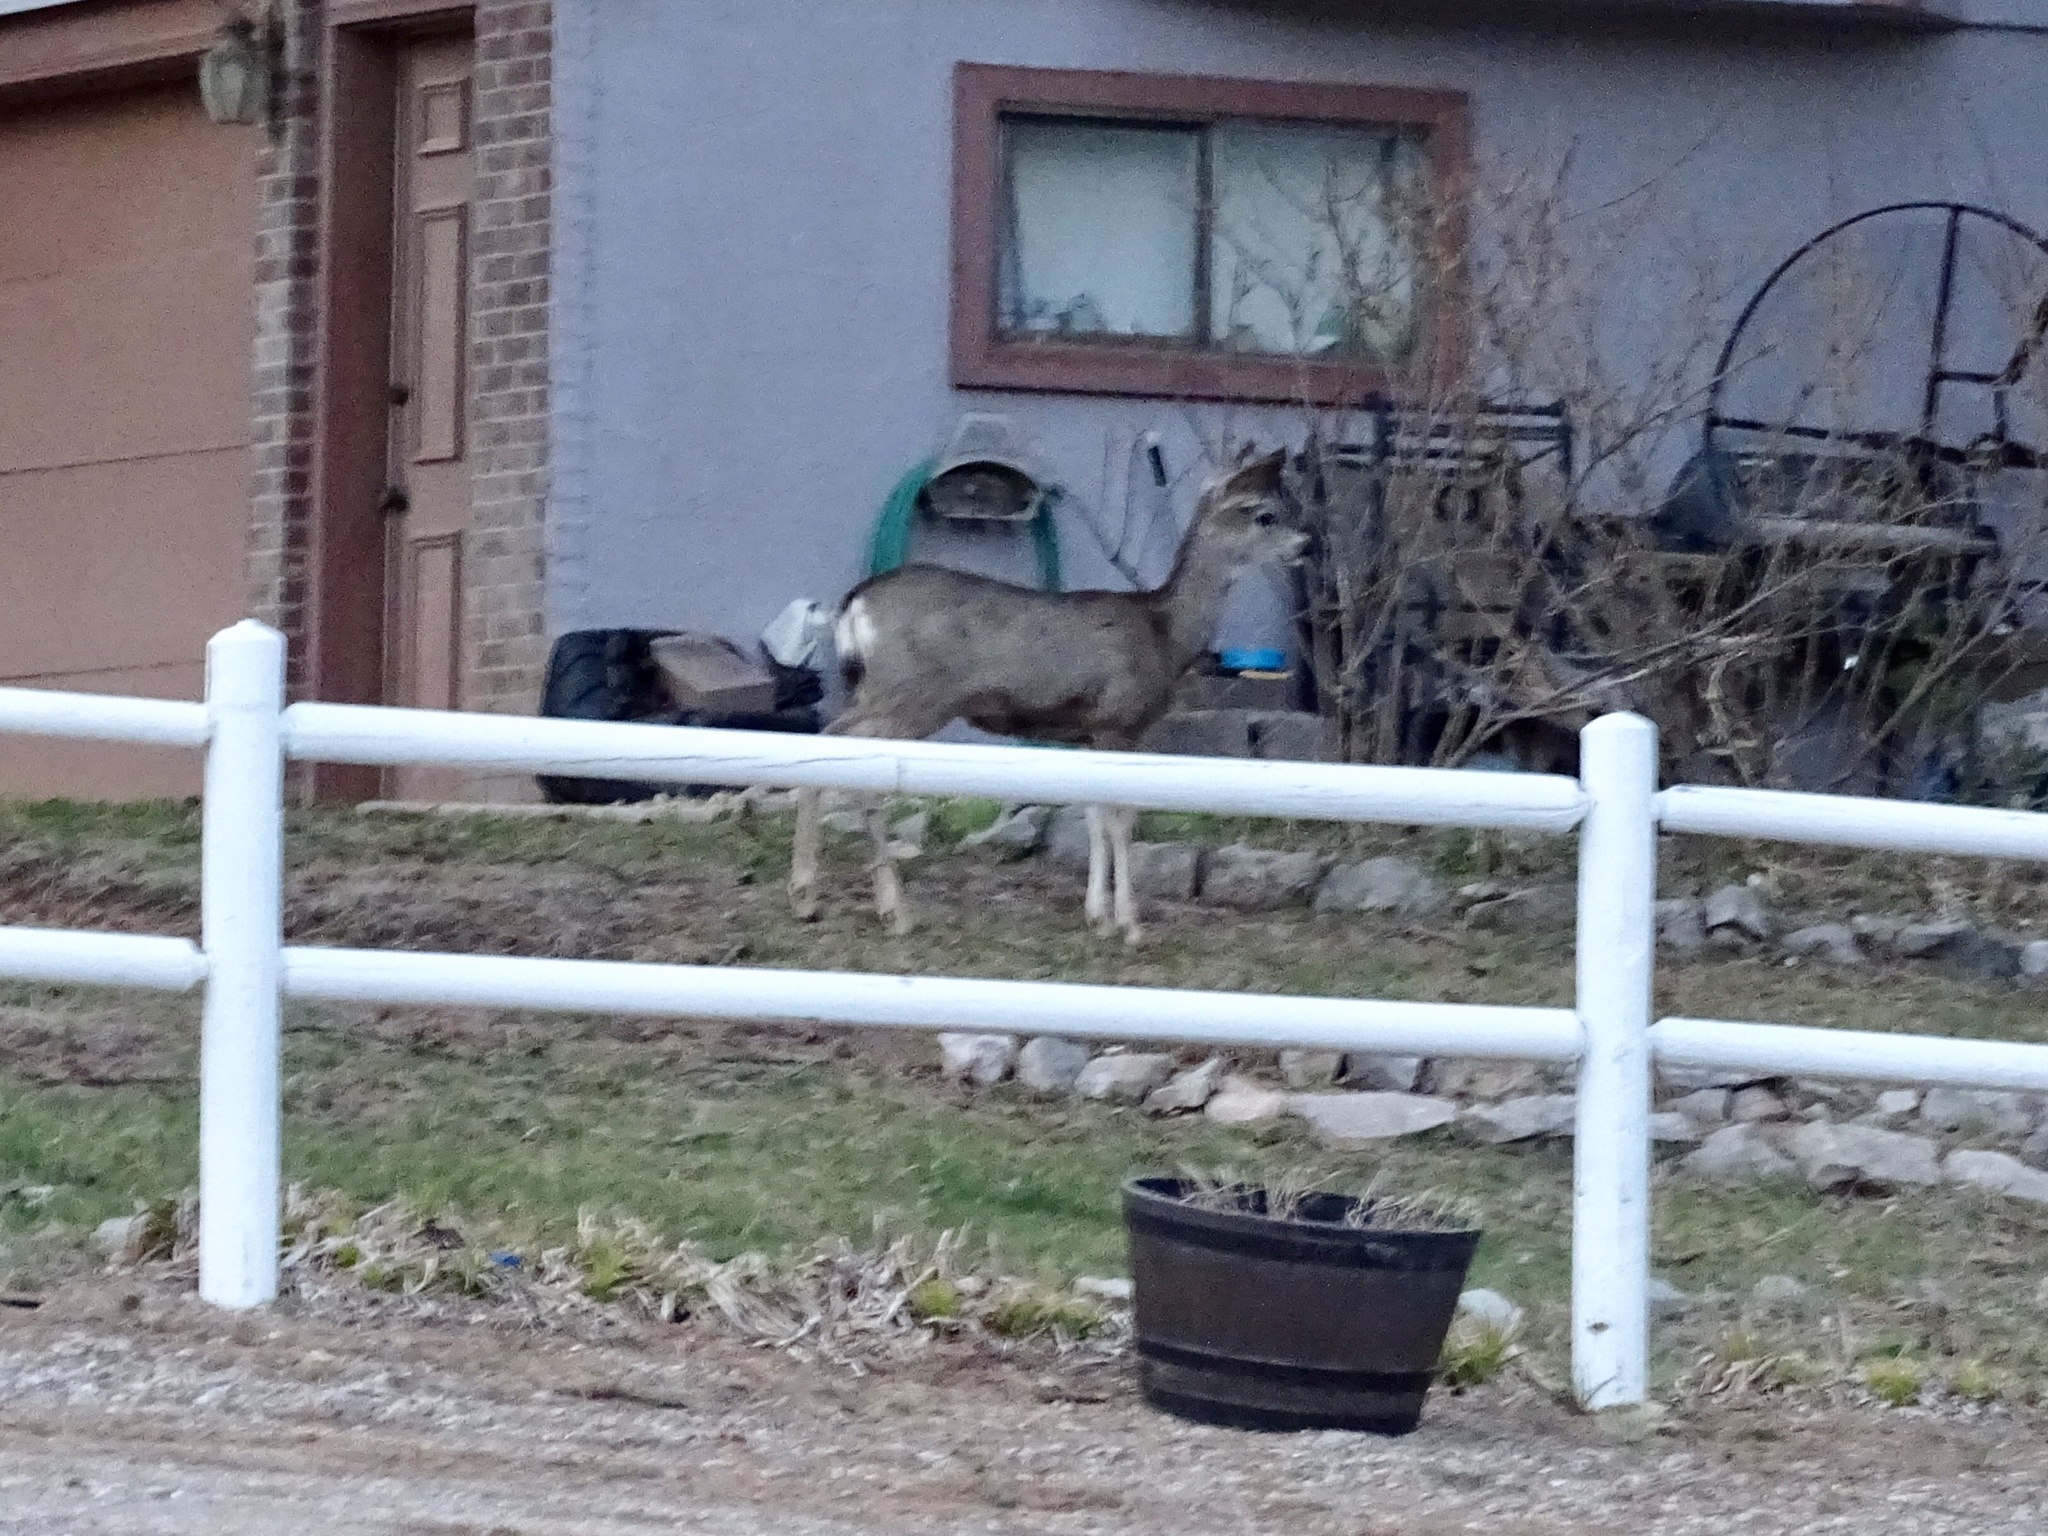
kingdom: Animalia
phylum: Chordata
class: Mammalia
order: Artiodactyla
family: Cervidae
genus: Odocoileus
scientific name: Odocoileus hemionus
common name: Mule deer
